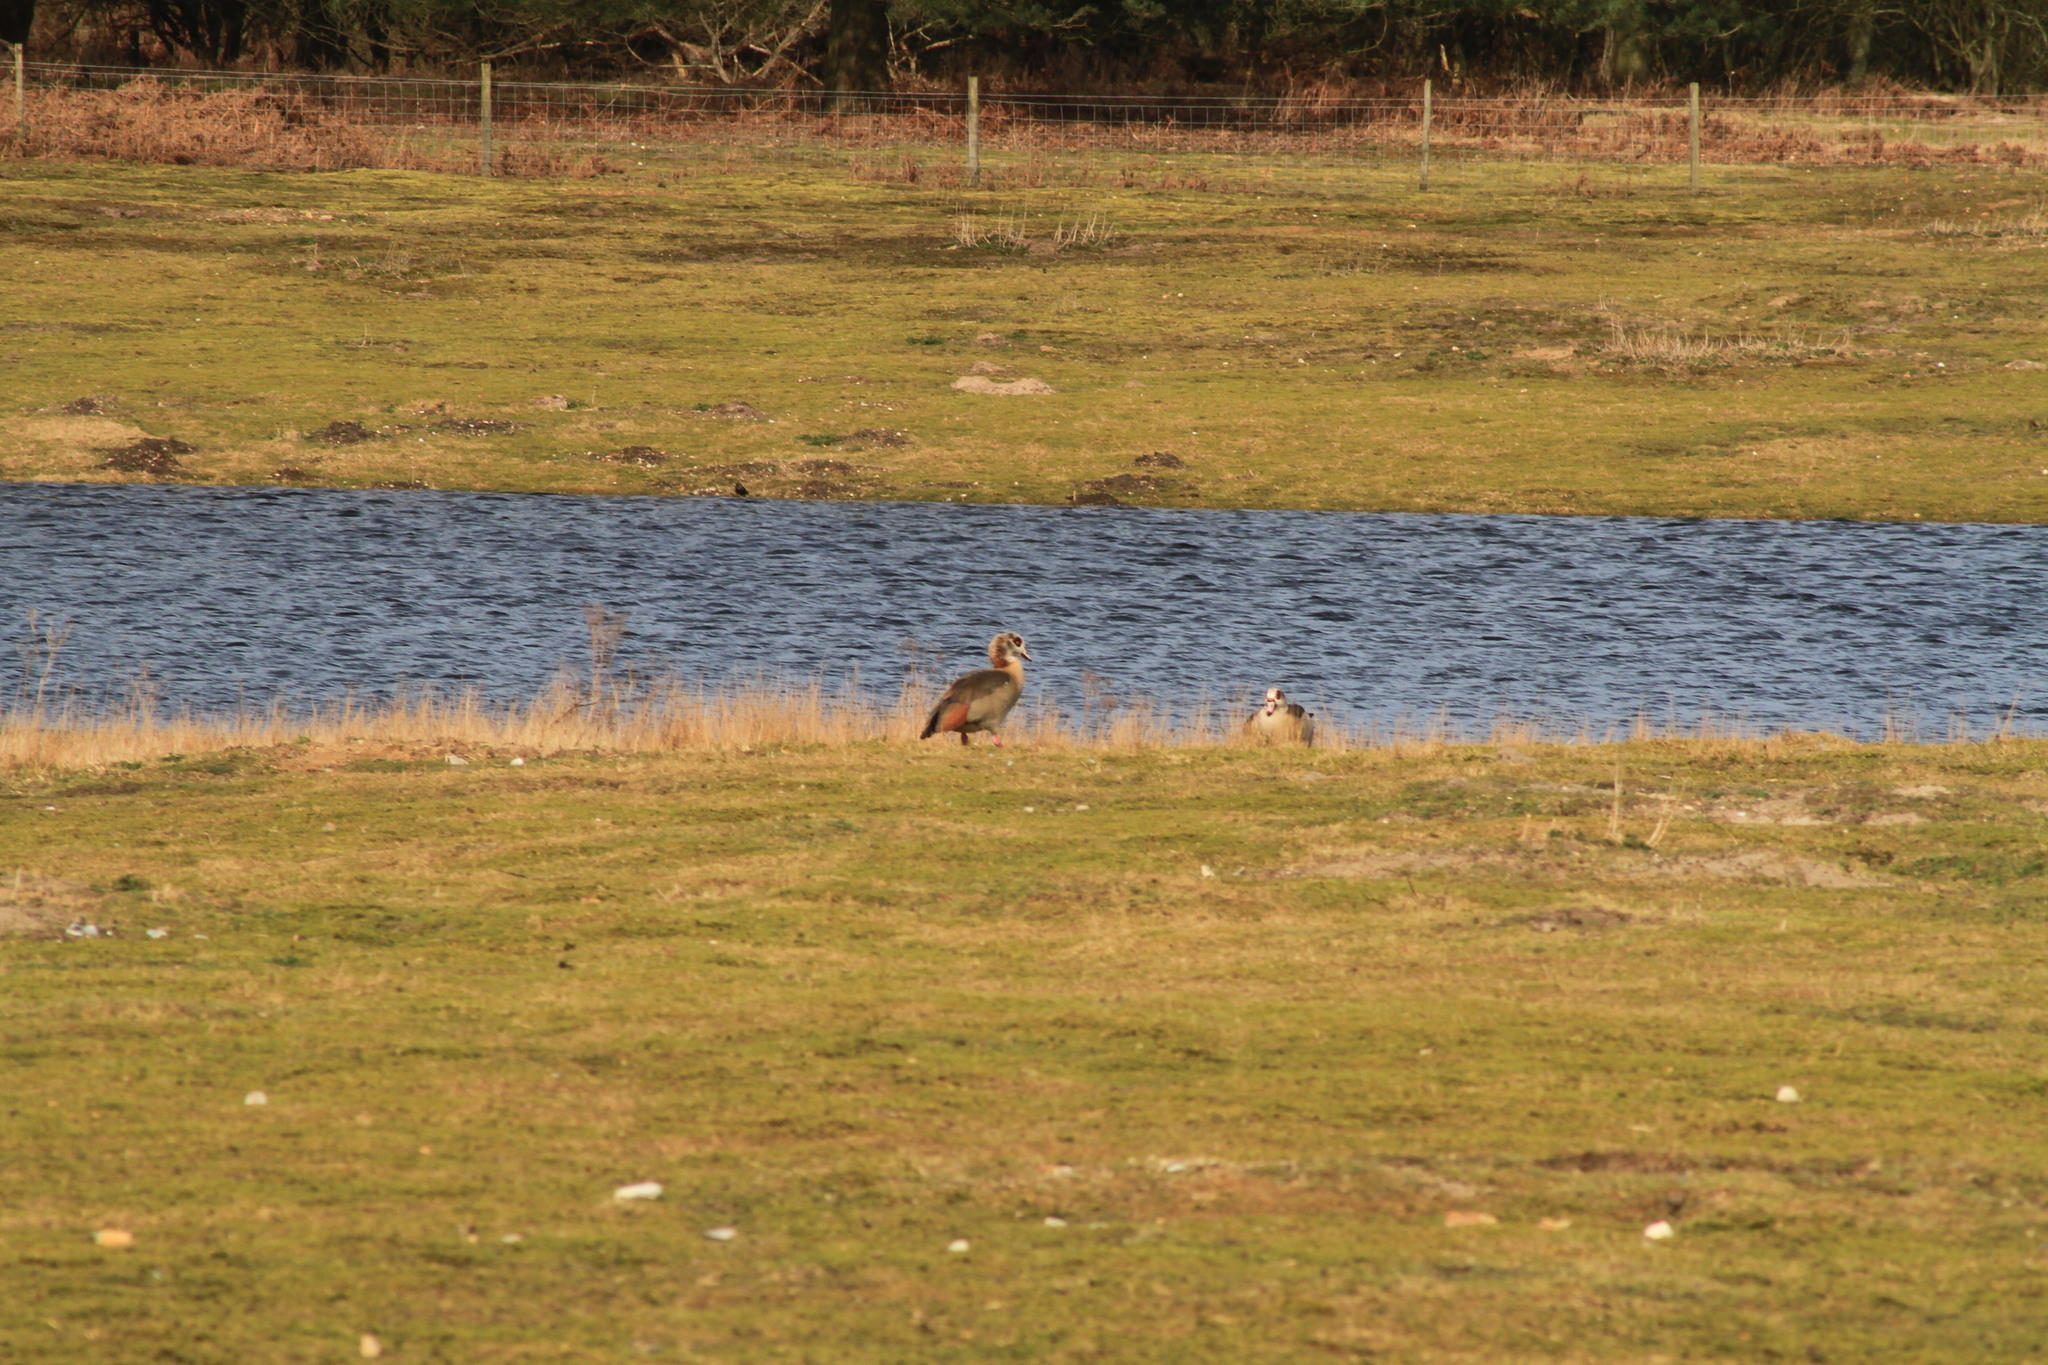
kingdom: Animalia
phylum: Chordata
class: Aves
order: Anseriformes
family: Anatidae
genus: Alopochen
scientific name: Alopochen aegyptiaca
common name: Egyptian goose
